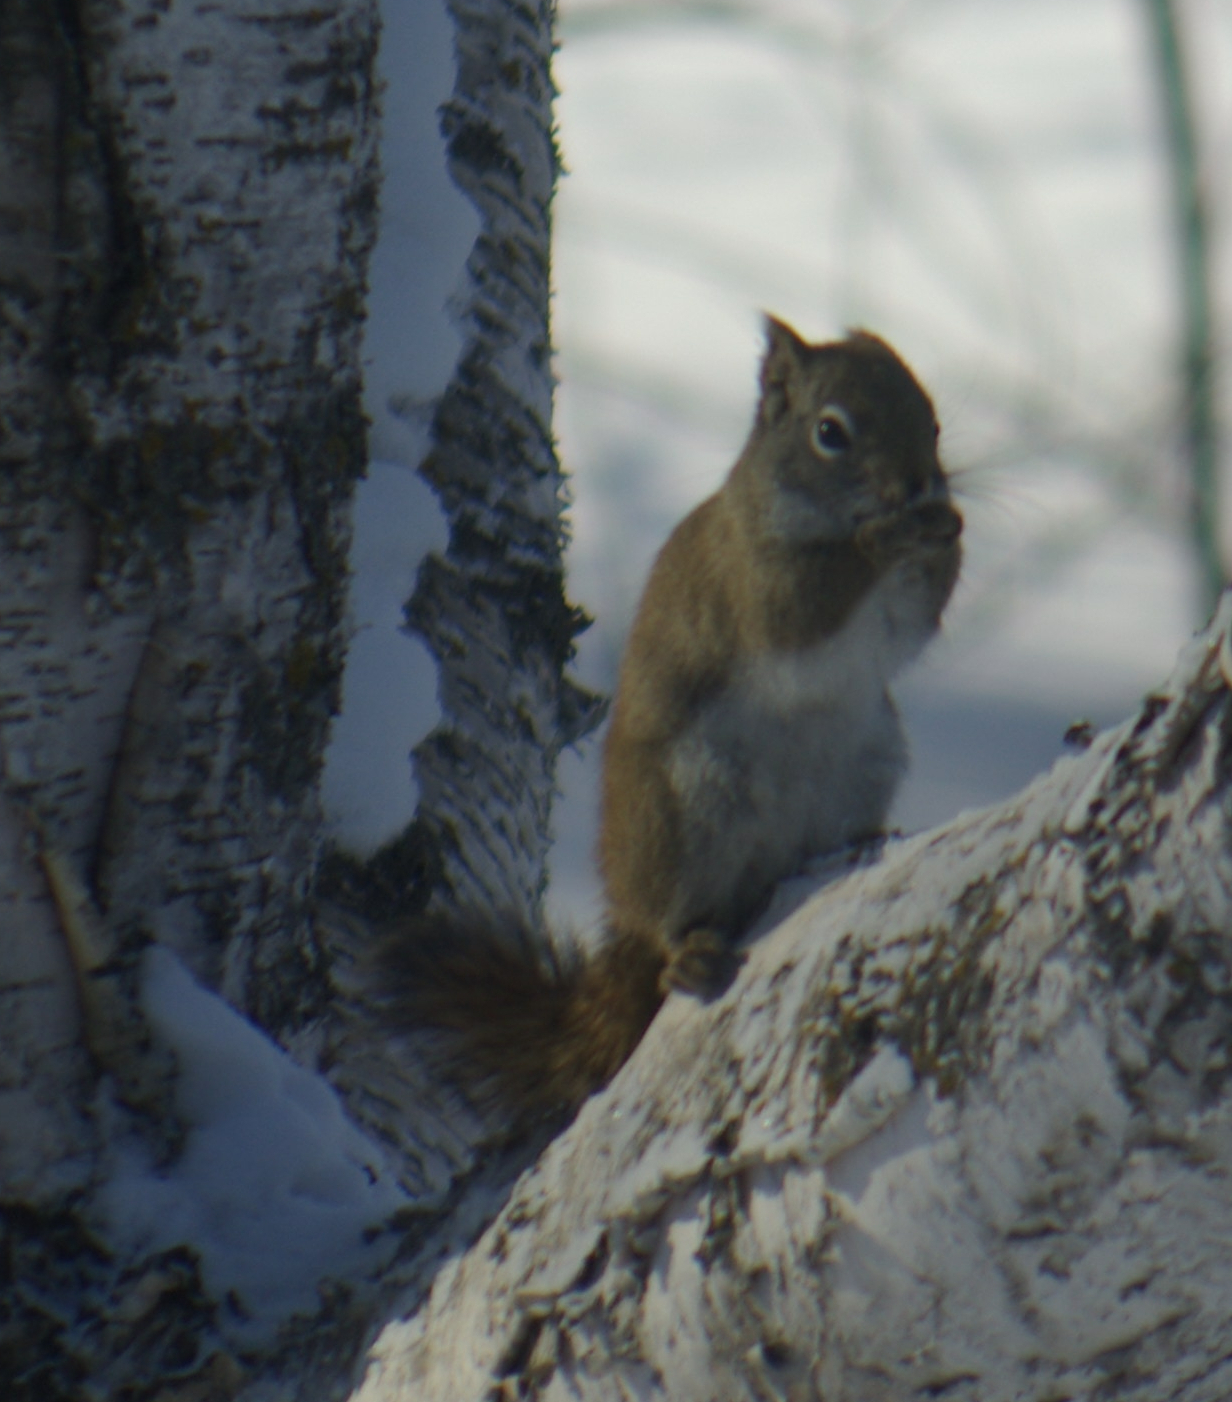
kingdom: Animalia
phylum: Chordata
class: Mammalia
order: Rodentia
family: Sciuridae
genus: Tamiasciurus
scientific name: Tamiasciurus hudsonicus
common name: Red squirrel
